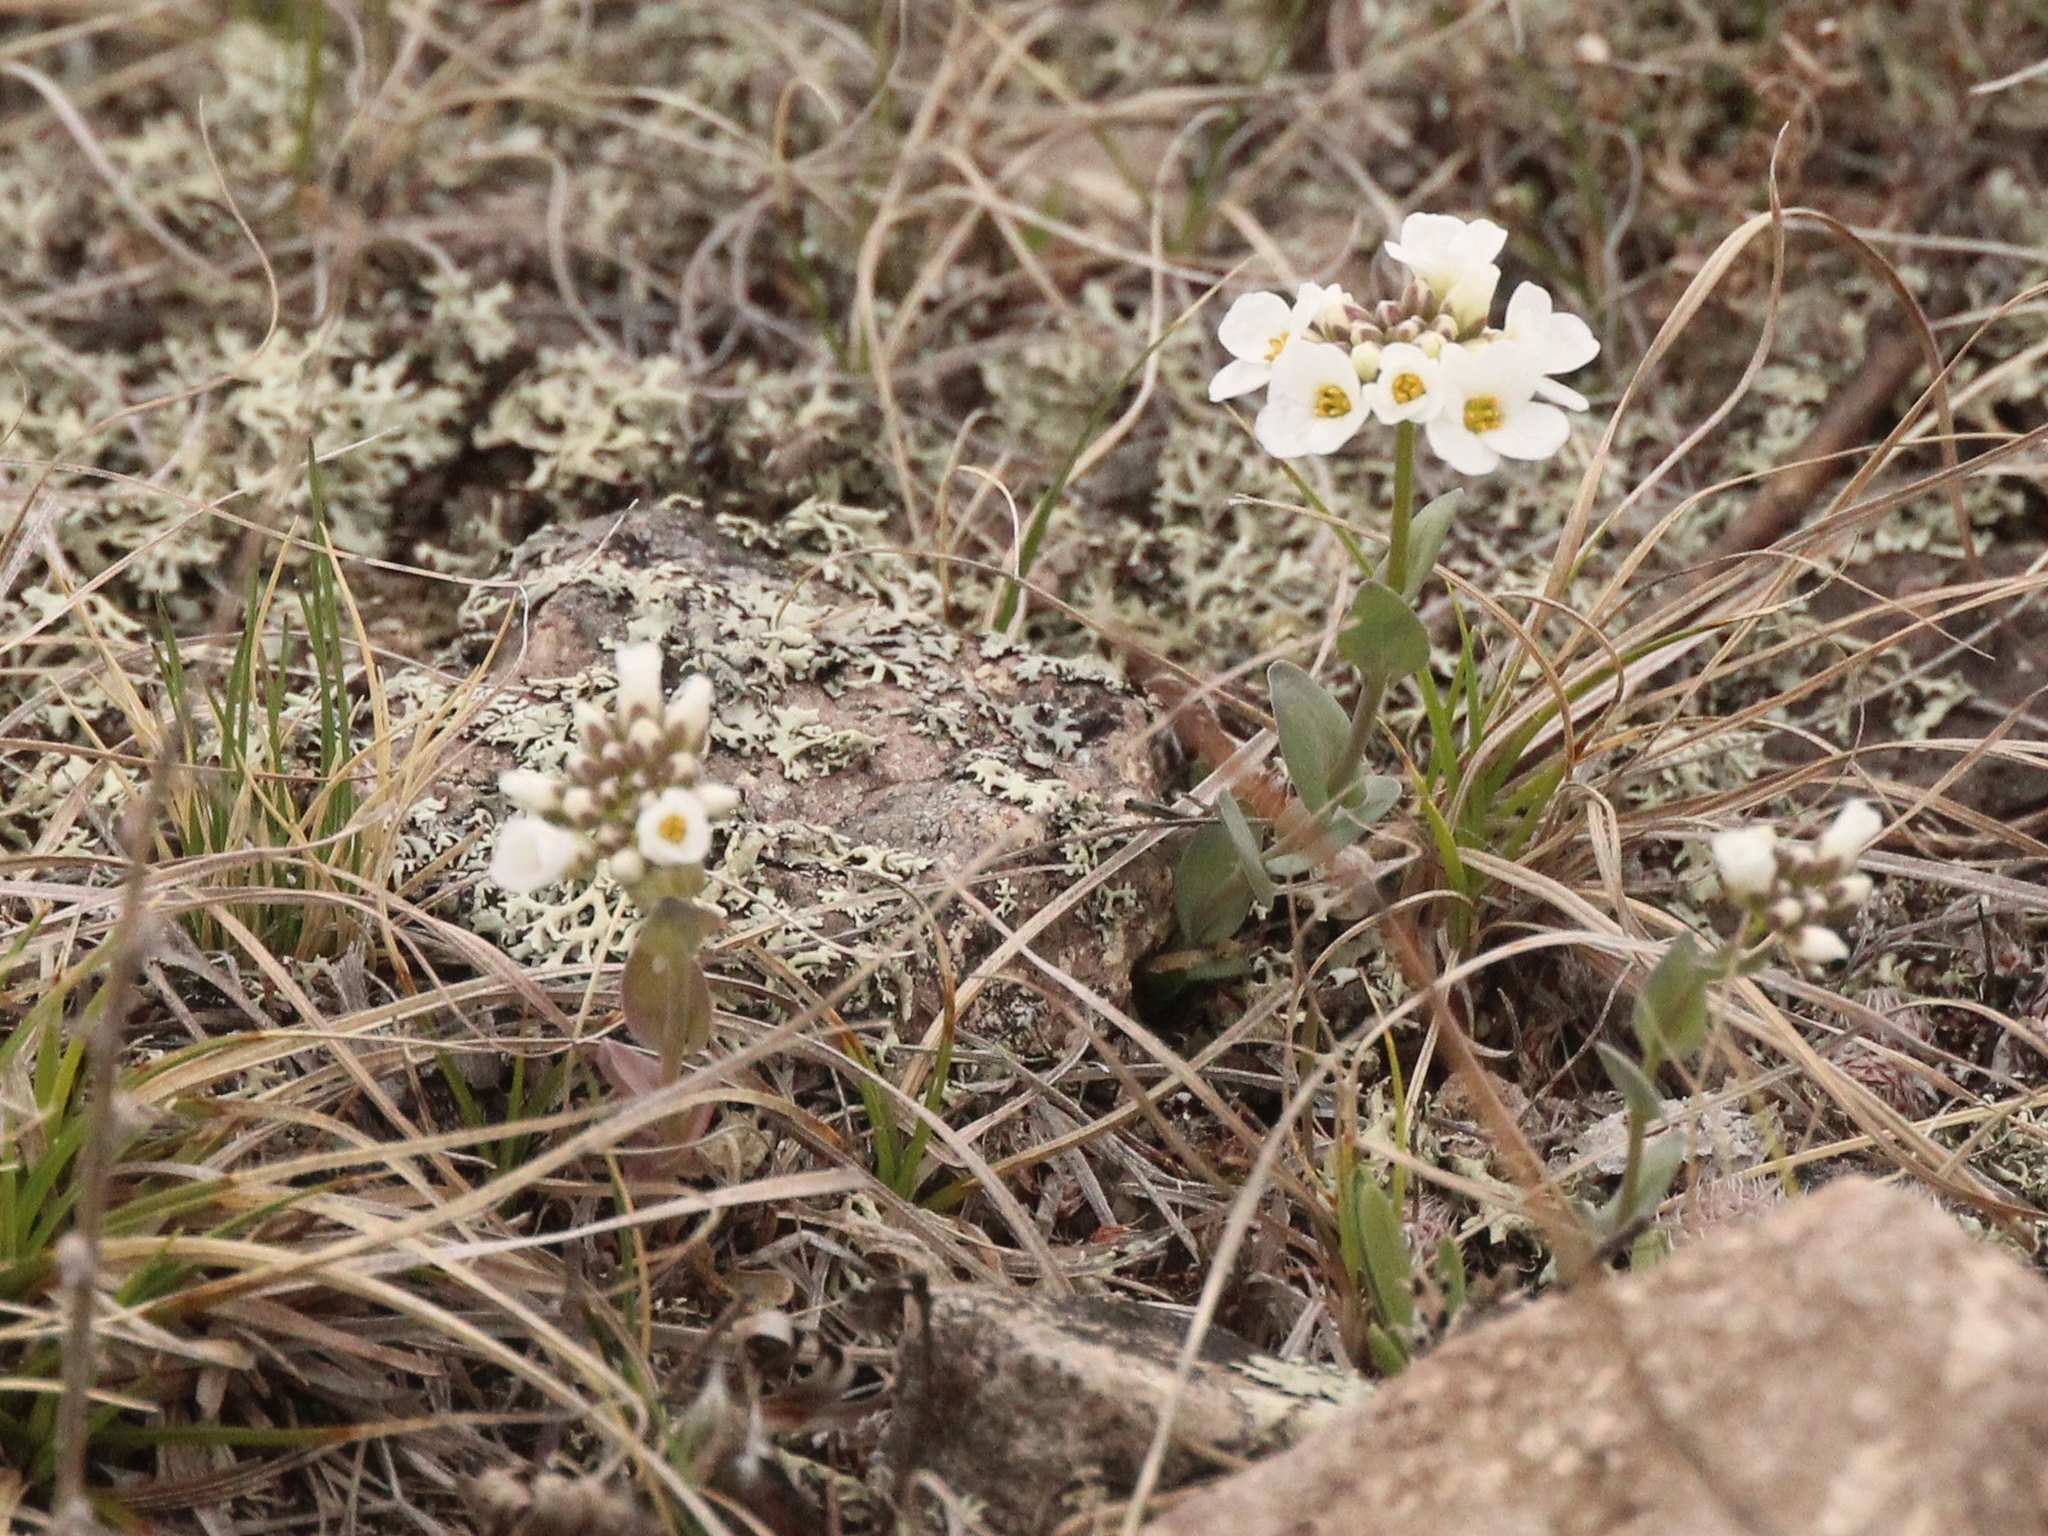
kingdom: Plantae
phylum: Tracheophyta
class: Magnoliopsida
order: Brassicales
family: Brassicaceae
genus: Noccaea
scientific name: Noccaea thlaspidioides
